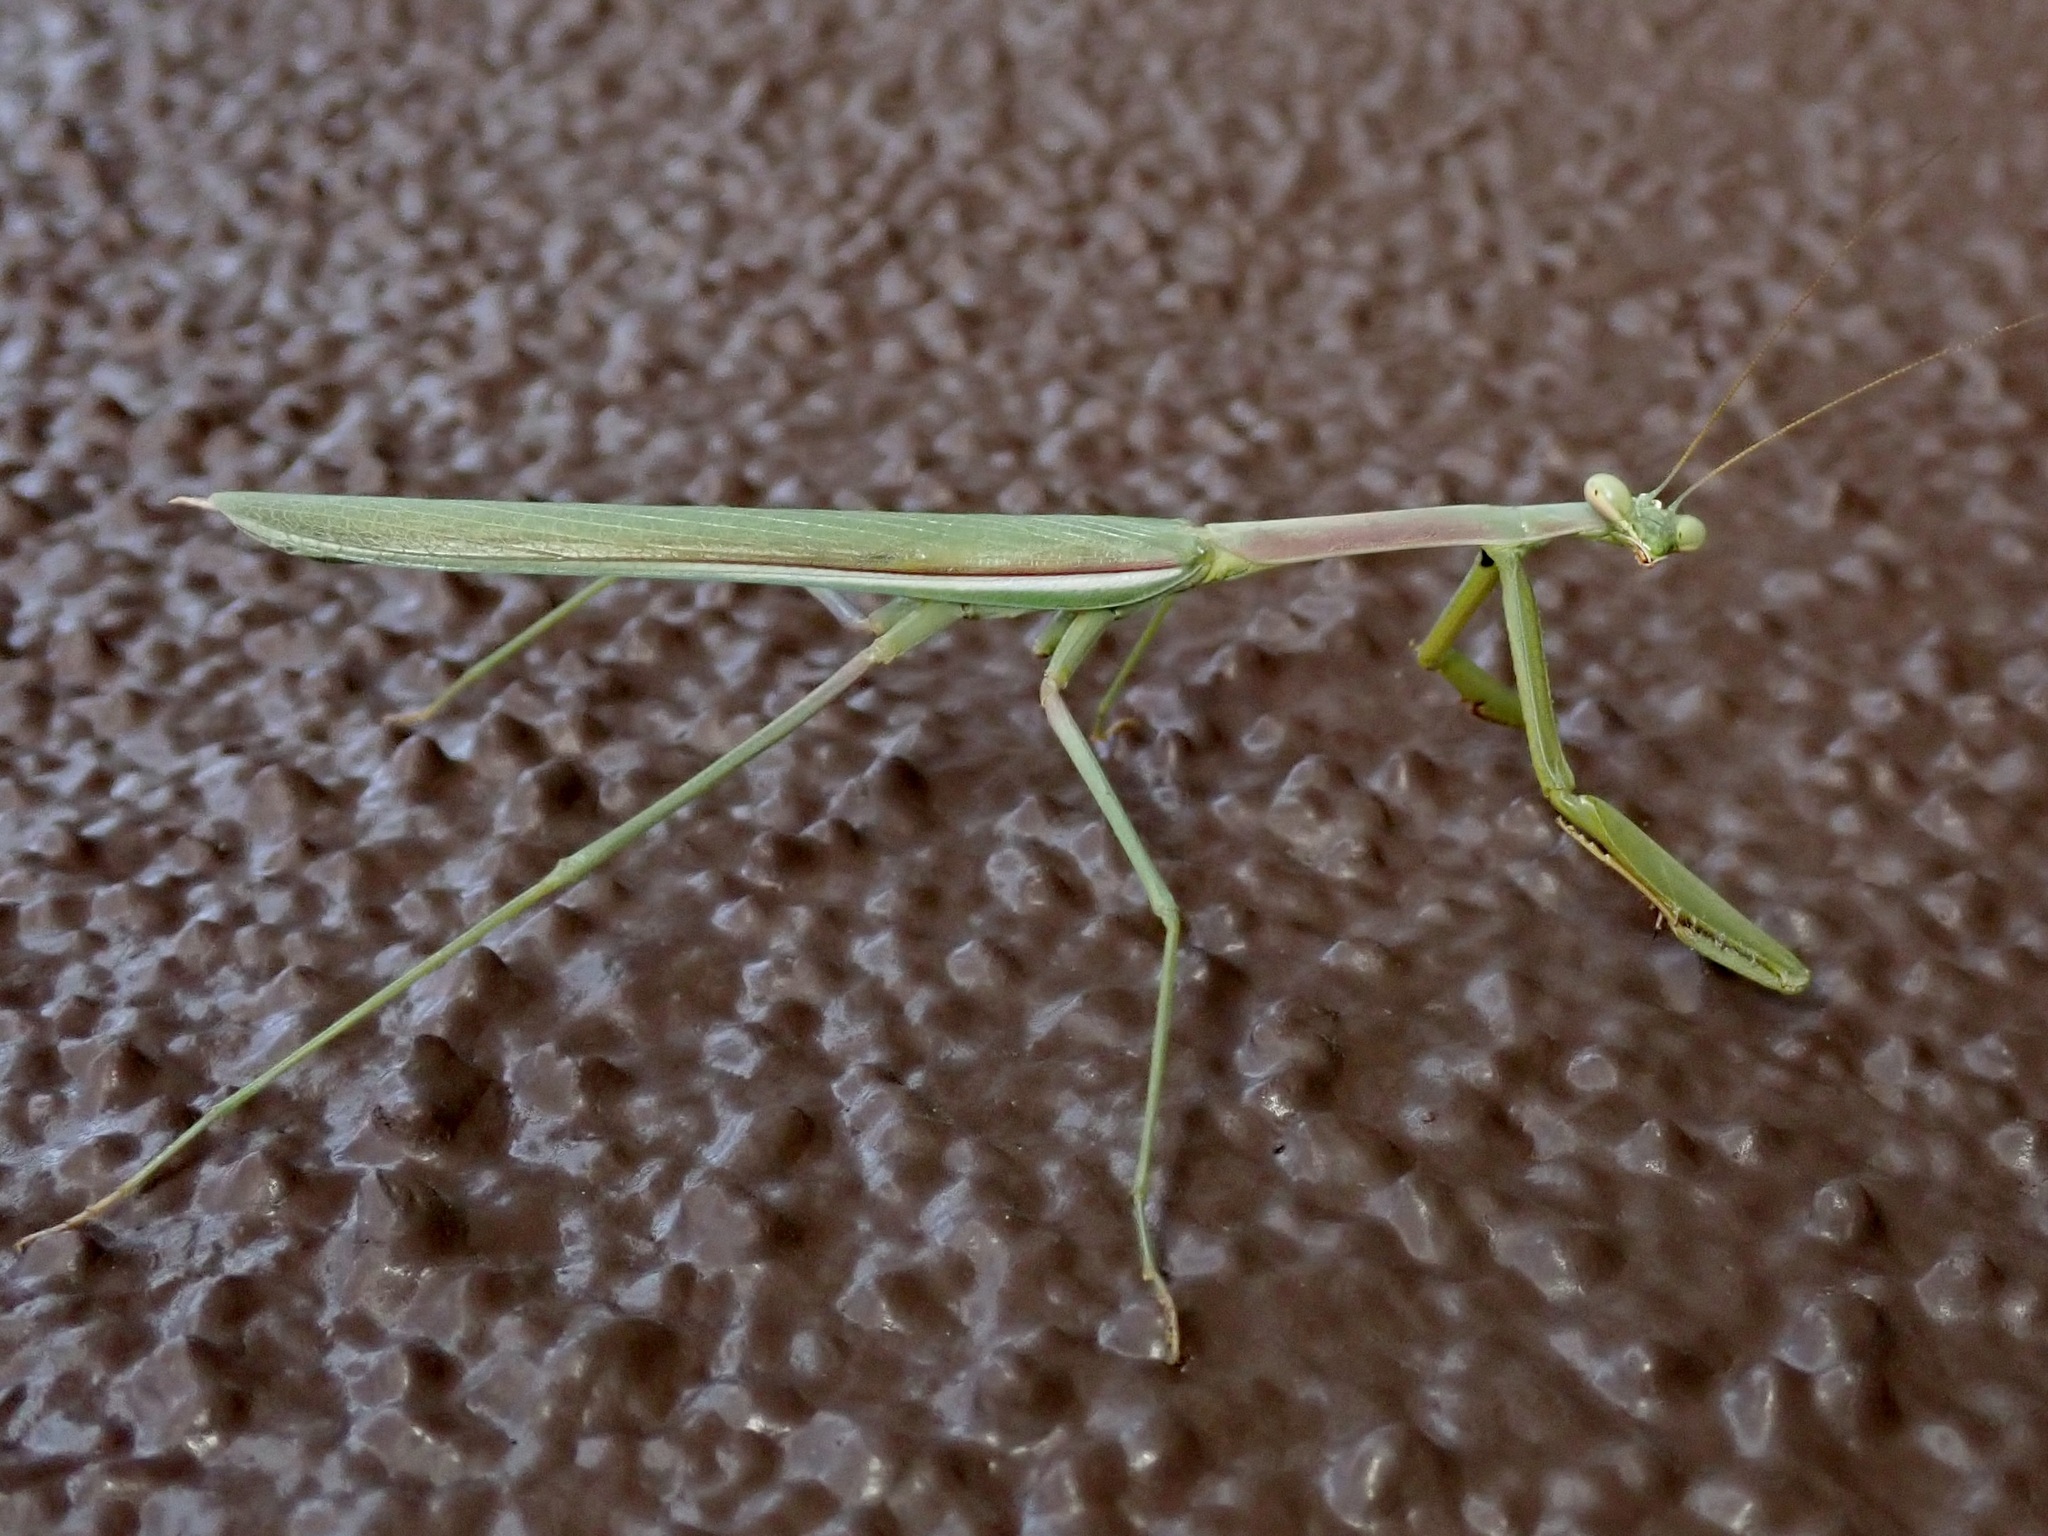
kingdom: Animalia
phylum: Arthropoda
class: Insecta
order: Mantodea
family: Mantidae
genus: Stagmomantis
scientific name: Stagmomantis gracilipes
